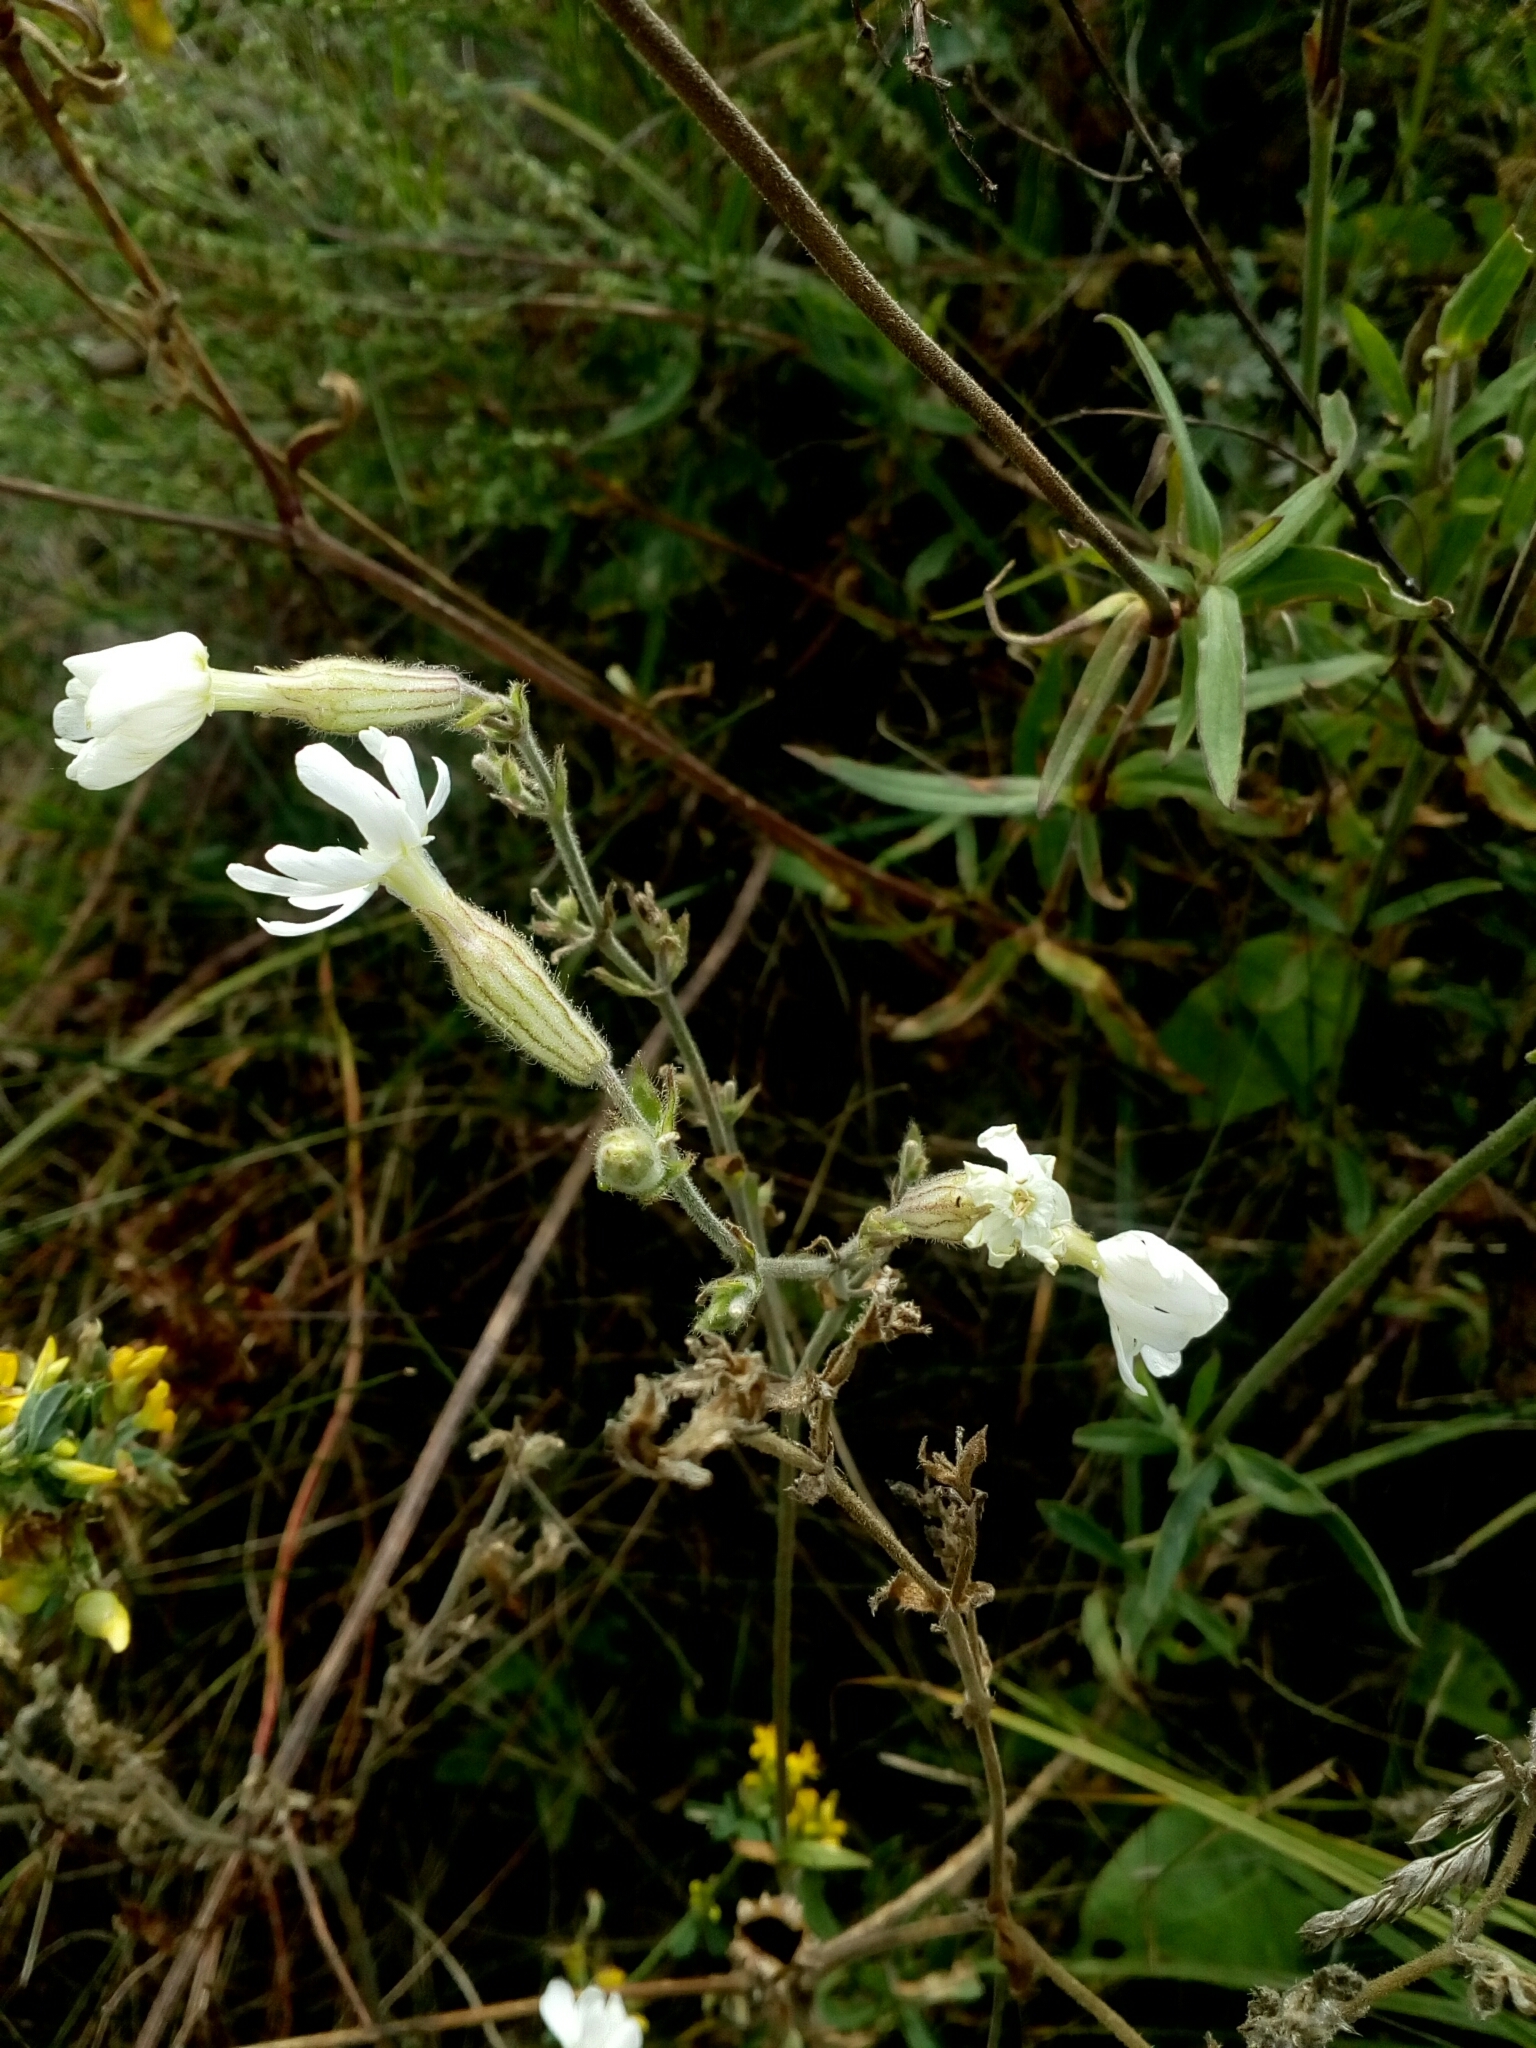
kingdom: Plantae
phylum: Tracheophyta
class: Magnoliopsida
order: Caryophyllales
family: Caryophyllaceae
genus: Silene
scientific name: Silene latifolia
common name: White campion
